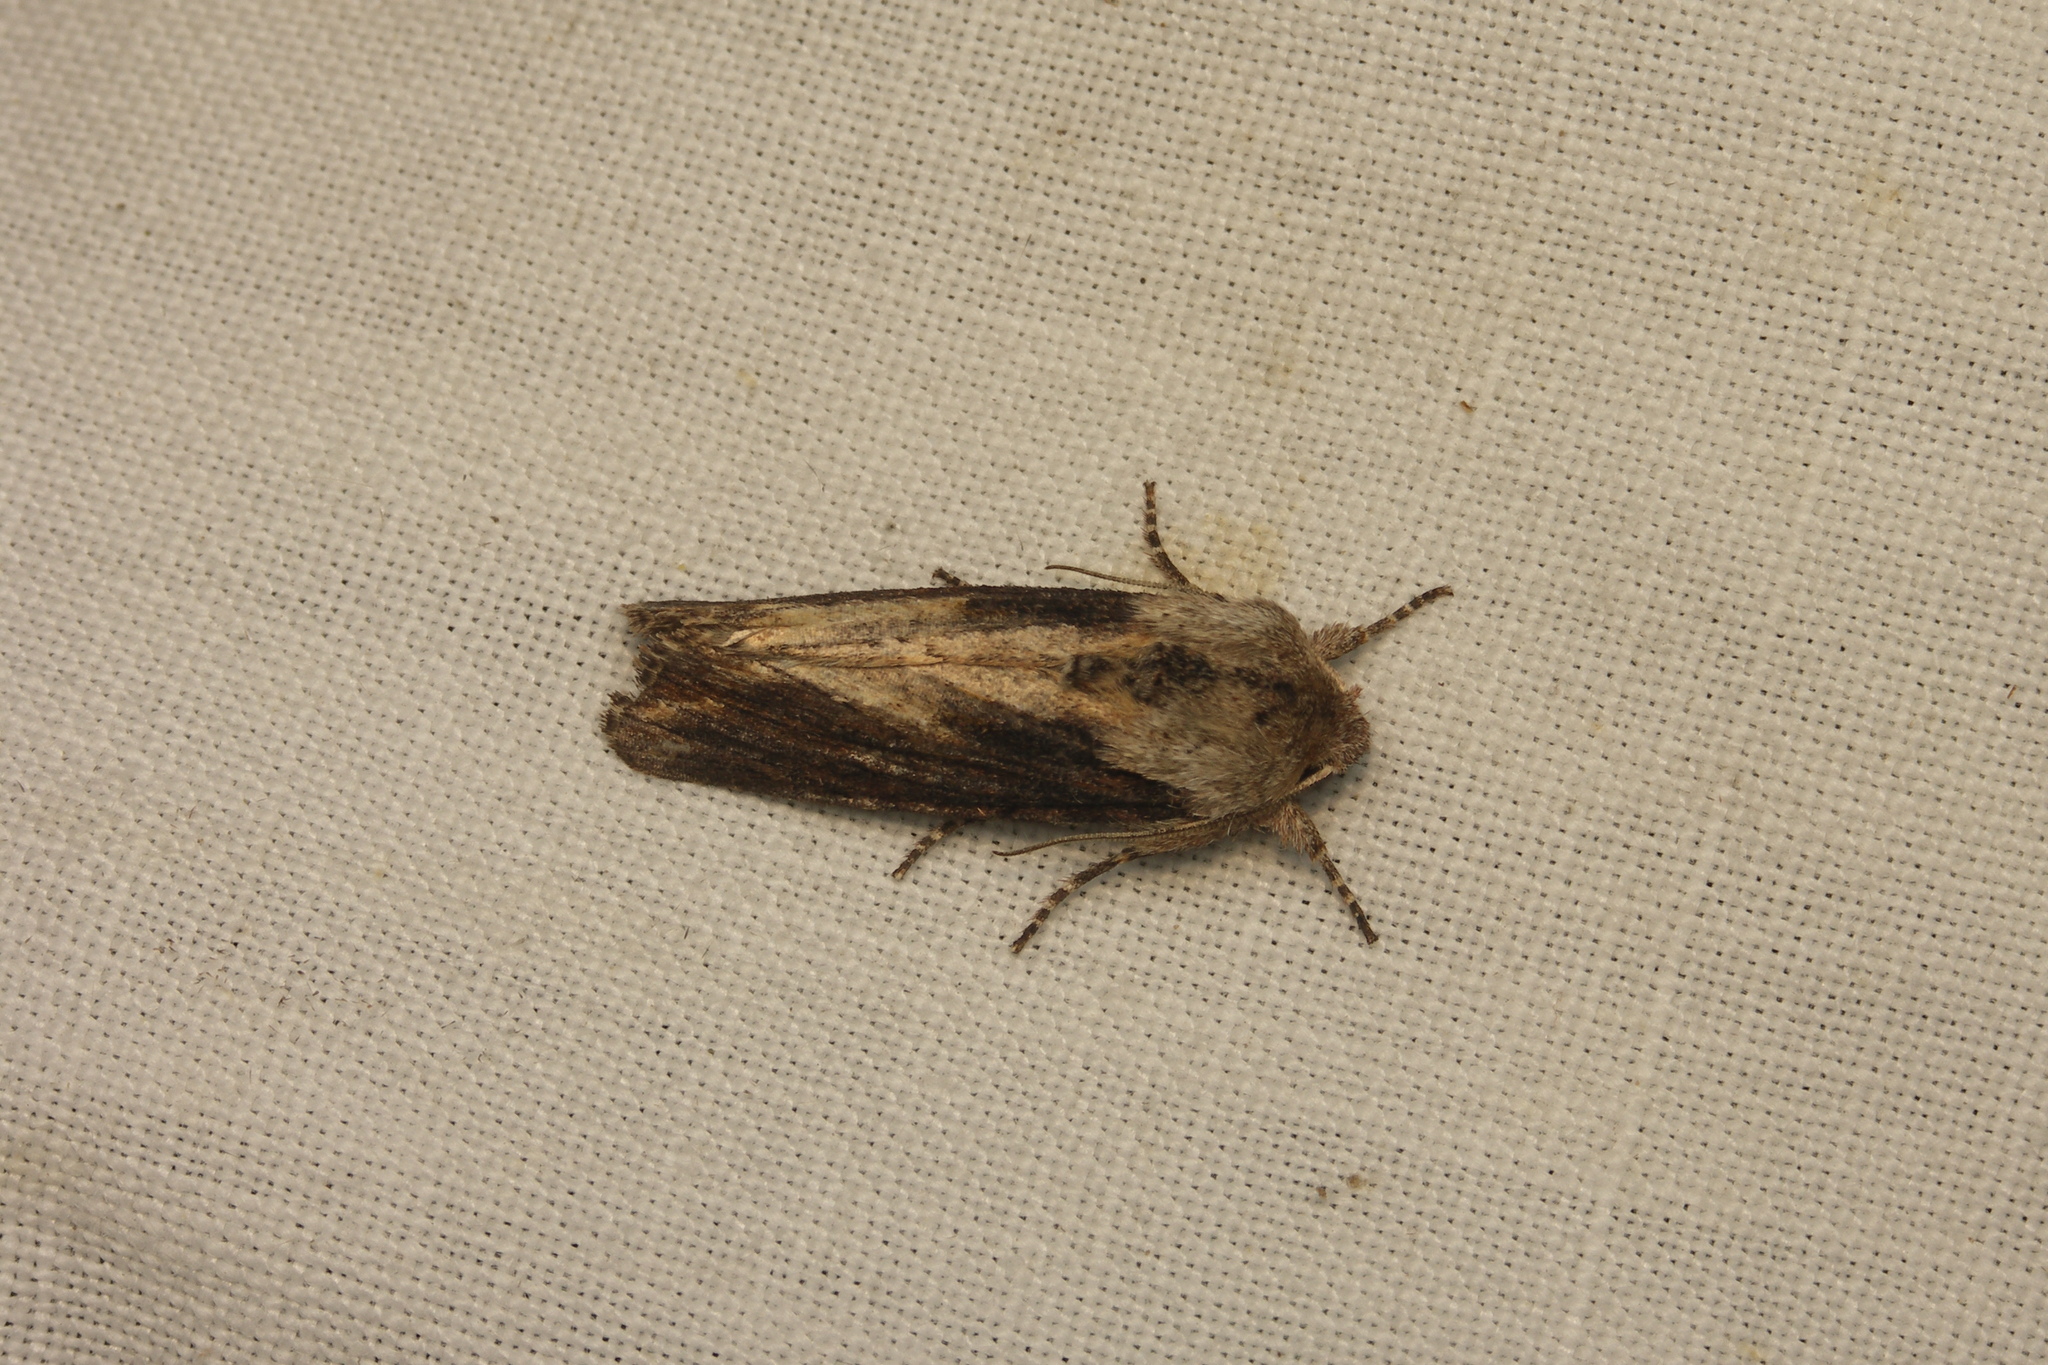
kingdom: Animalia
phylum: Arthropoda
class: Insecta
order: Lepidoptera
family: Noctuidae
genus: Egira
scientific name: Egira conspicillaris
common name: Silver cloud
